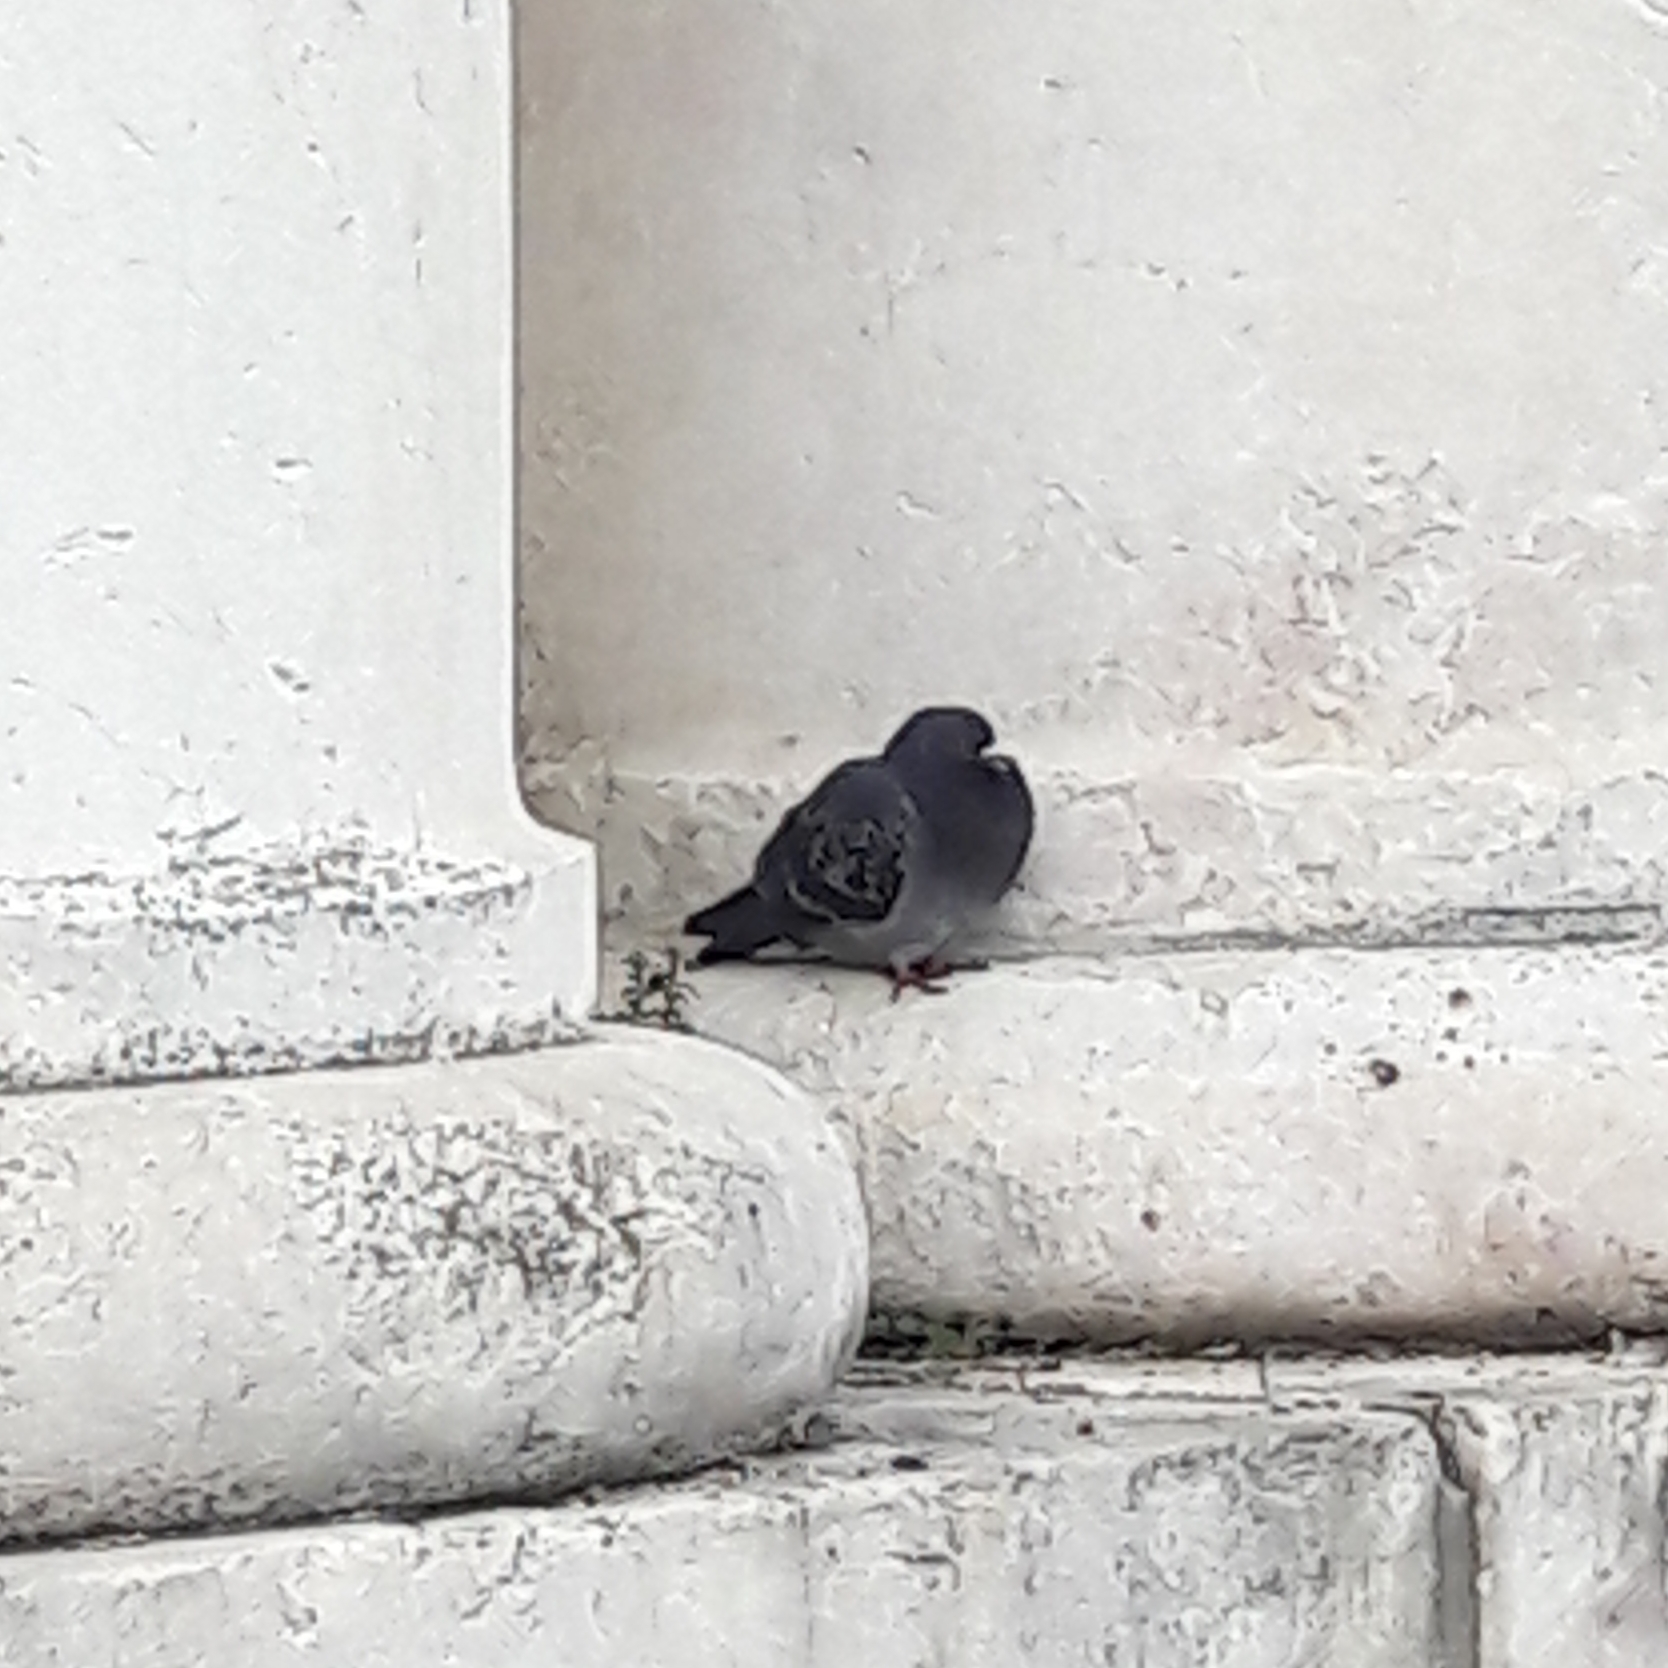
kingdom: Animalia
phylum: Chordata
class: Aves
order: Columbiformes
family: Columbidae
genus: Columba
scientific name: Columba livia
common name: Rock pigeon
